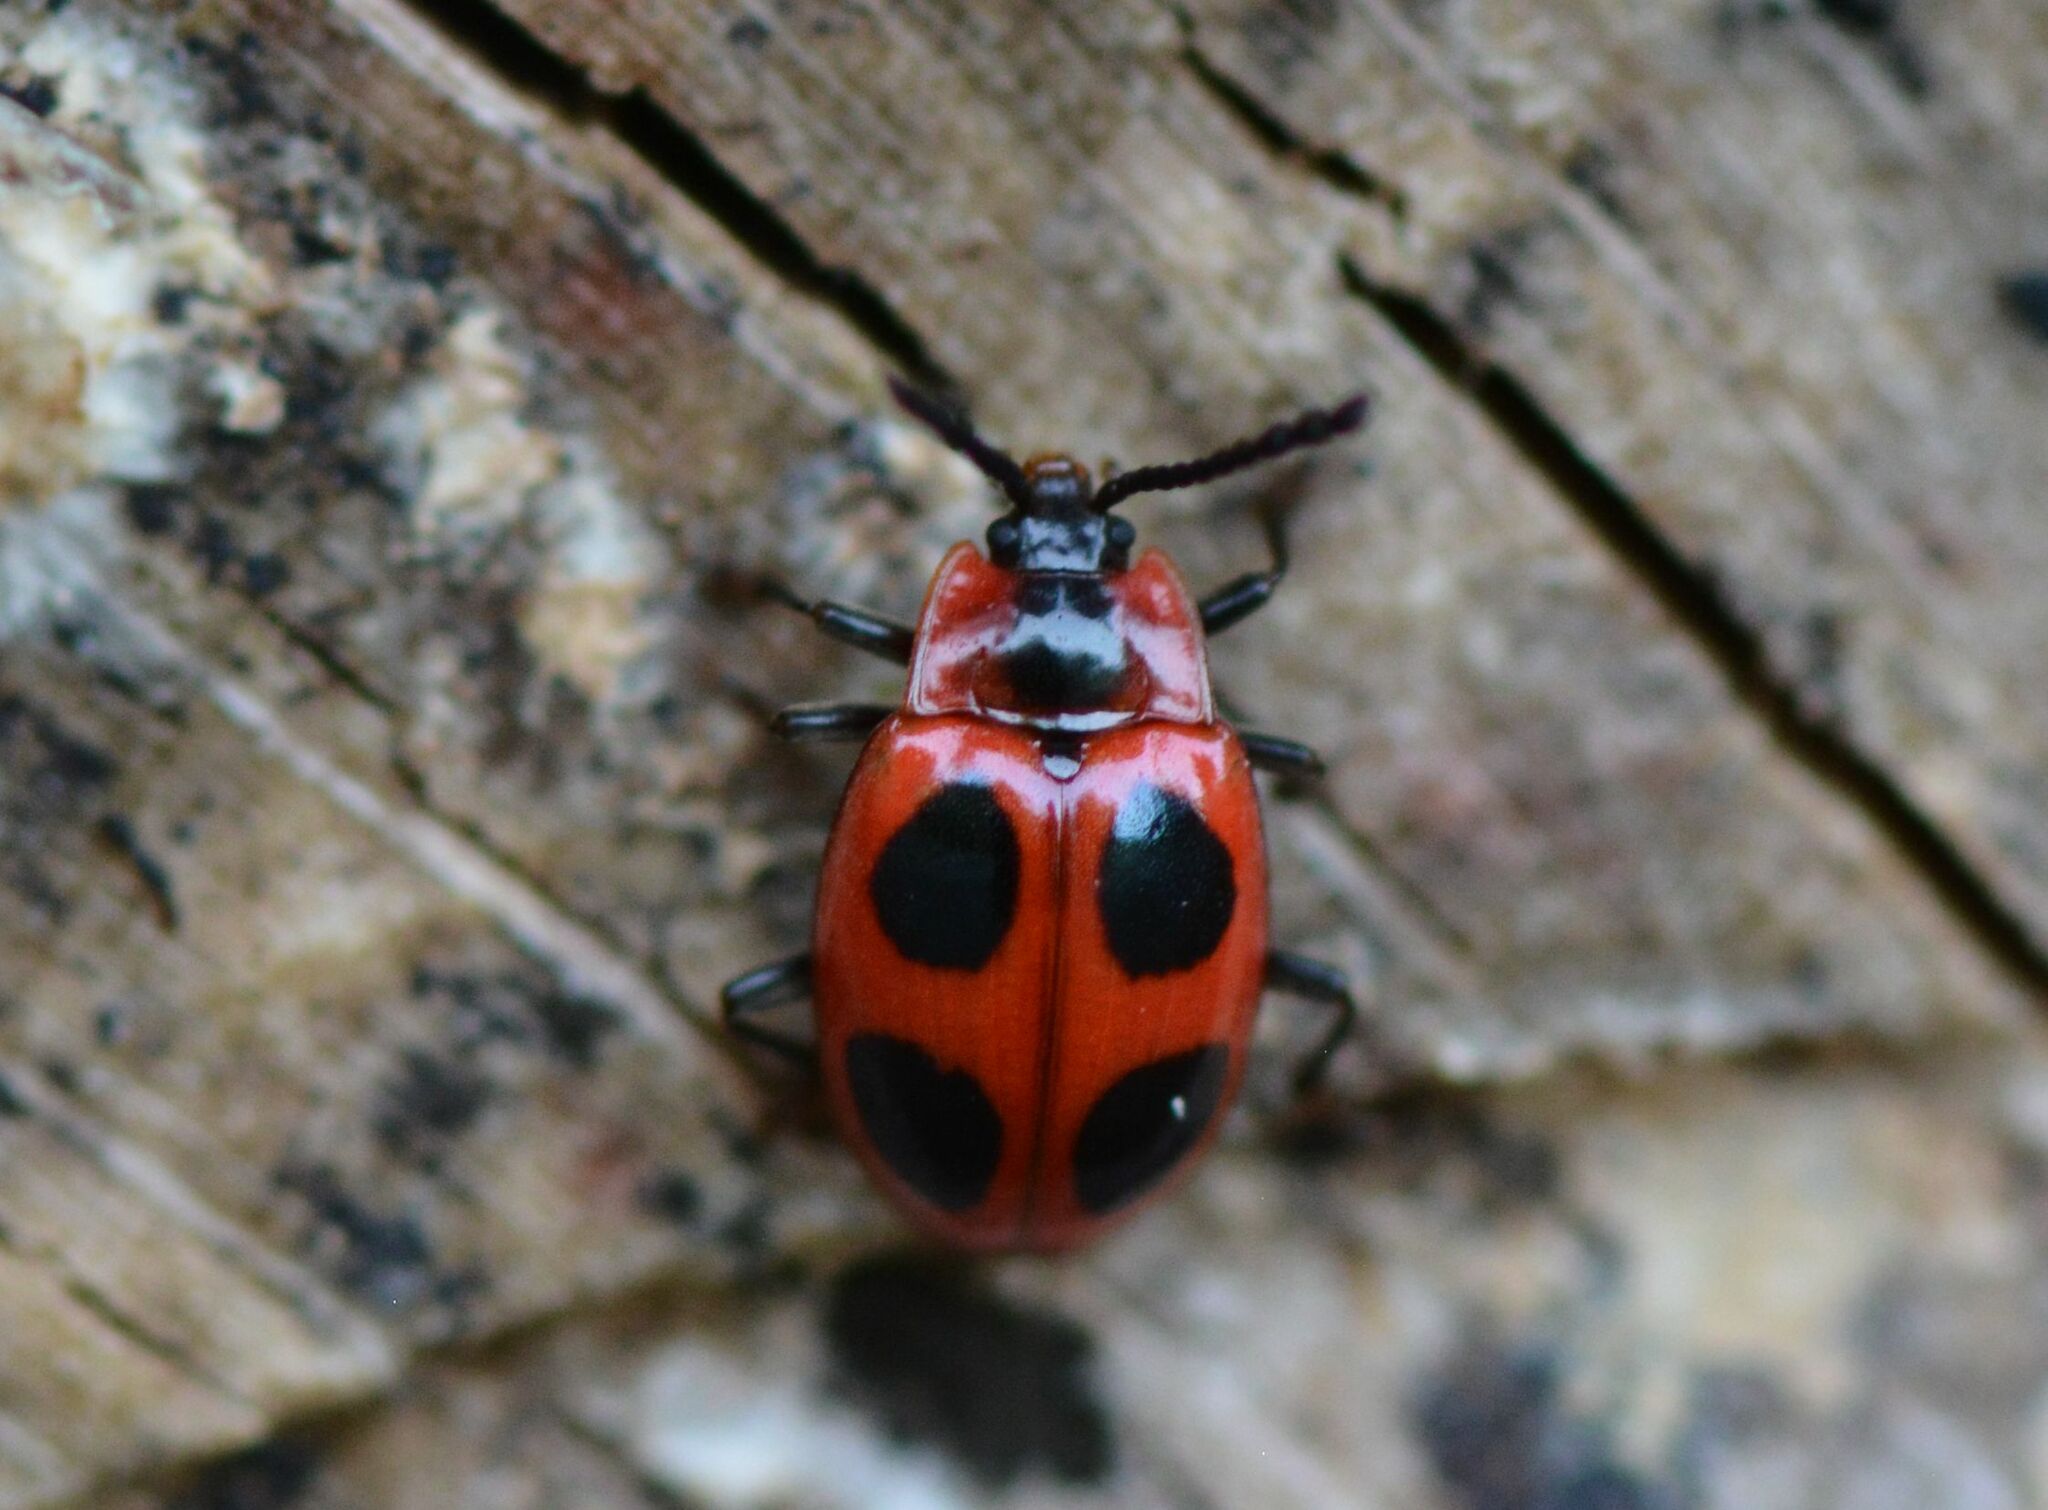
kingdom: Animalia
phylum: Arthropoda
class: Insecta
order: Coleoptera
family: Endomychidae
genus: Endomychus
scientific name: Endomychus coccineus
